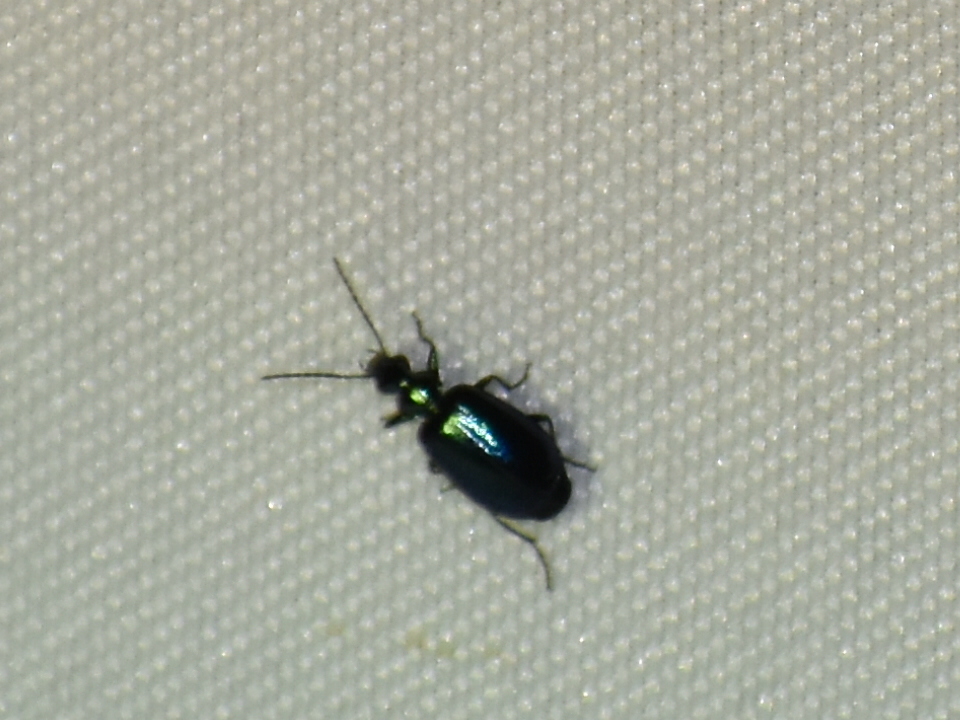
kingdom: Animalia
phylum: Arthropoda
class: Insecta
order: Coleoptera
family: Carabidae
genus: Lebia
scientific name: Lebia viridis
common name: Flower lebia beetle
